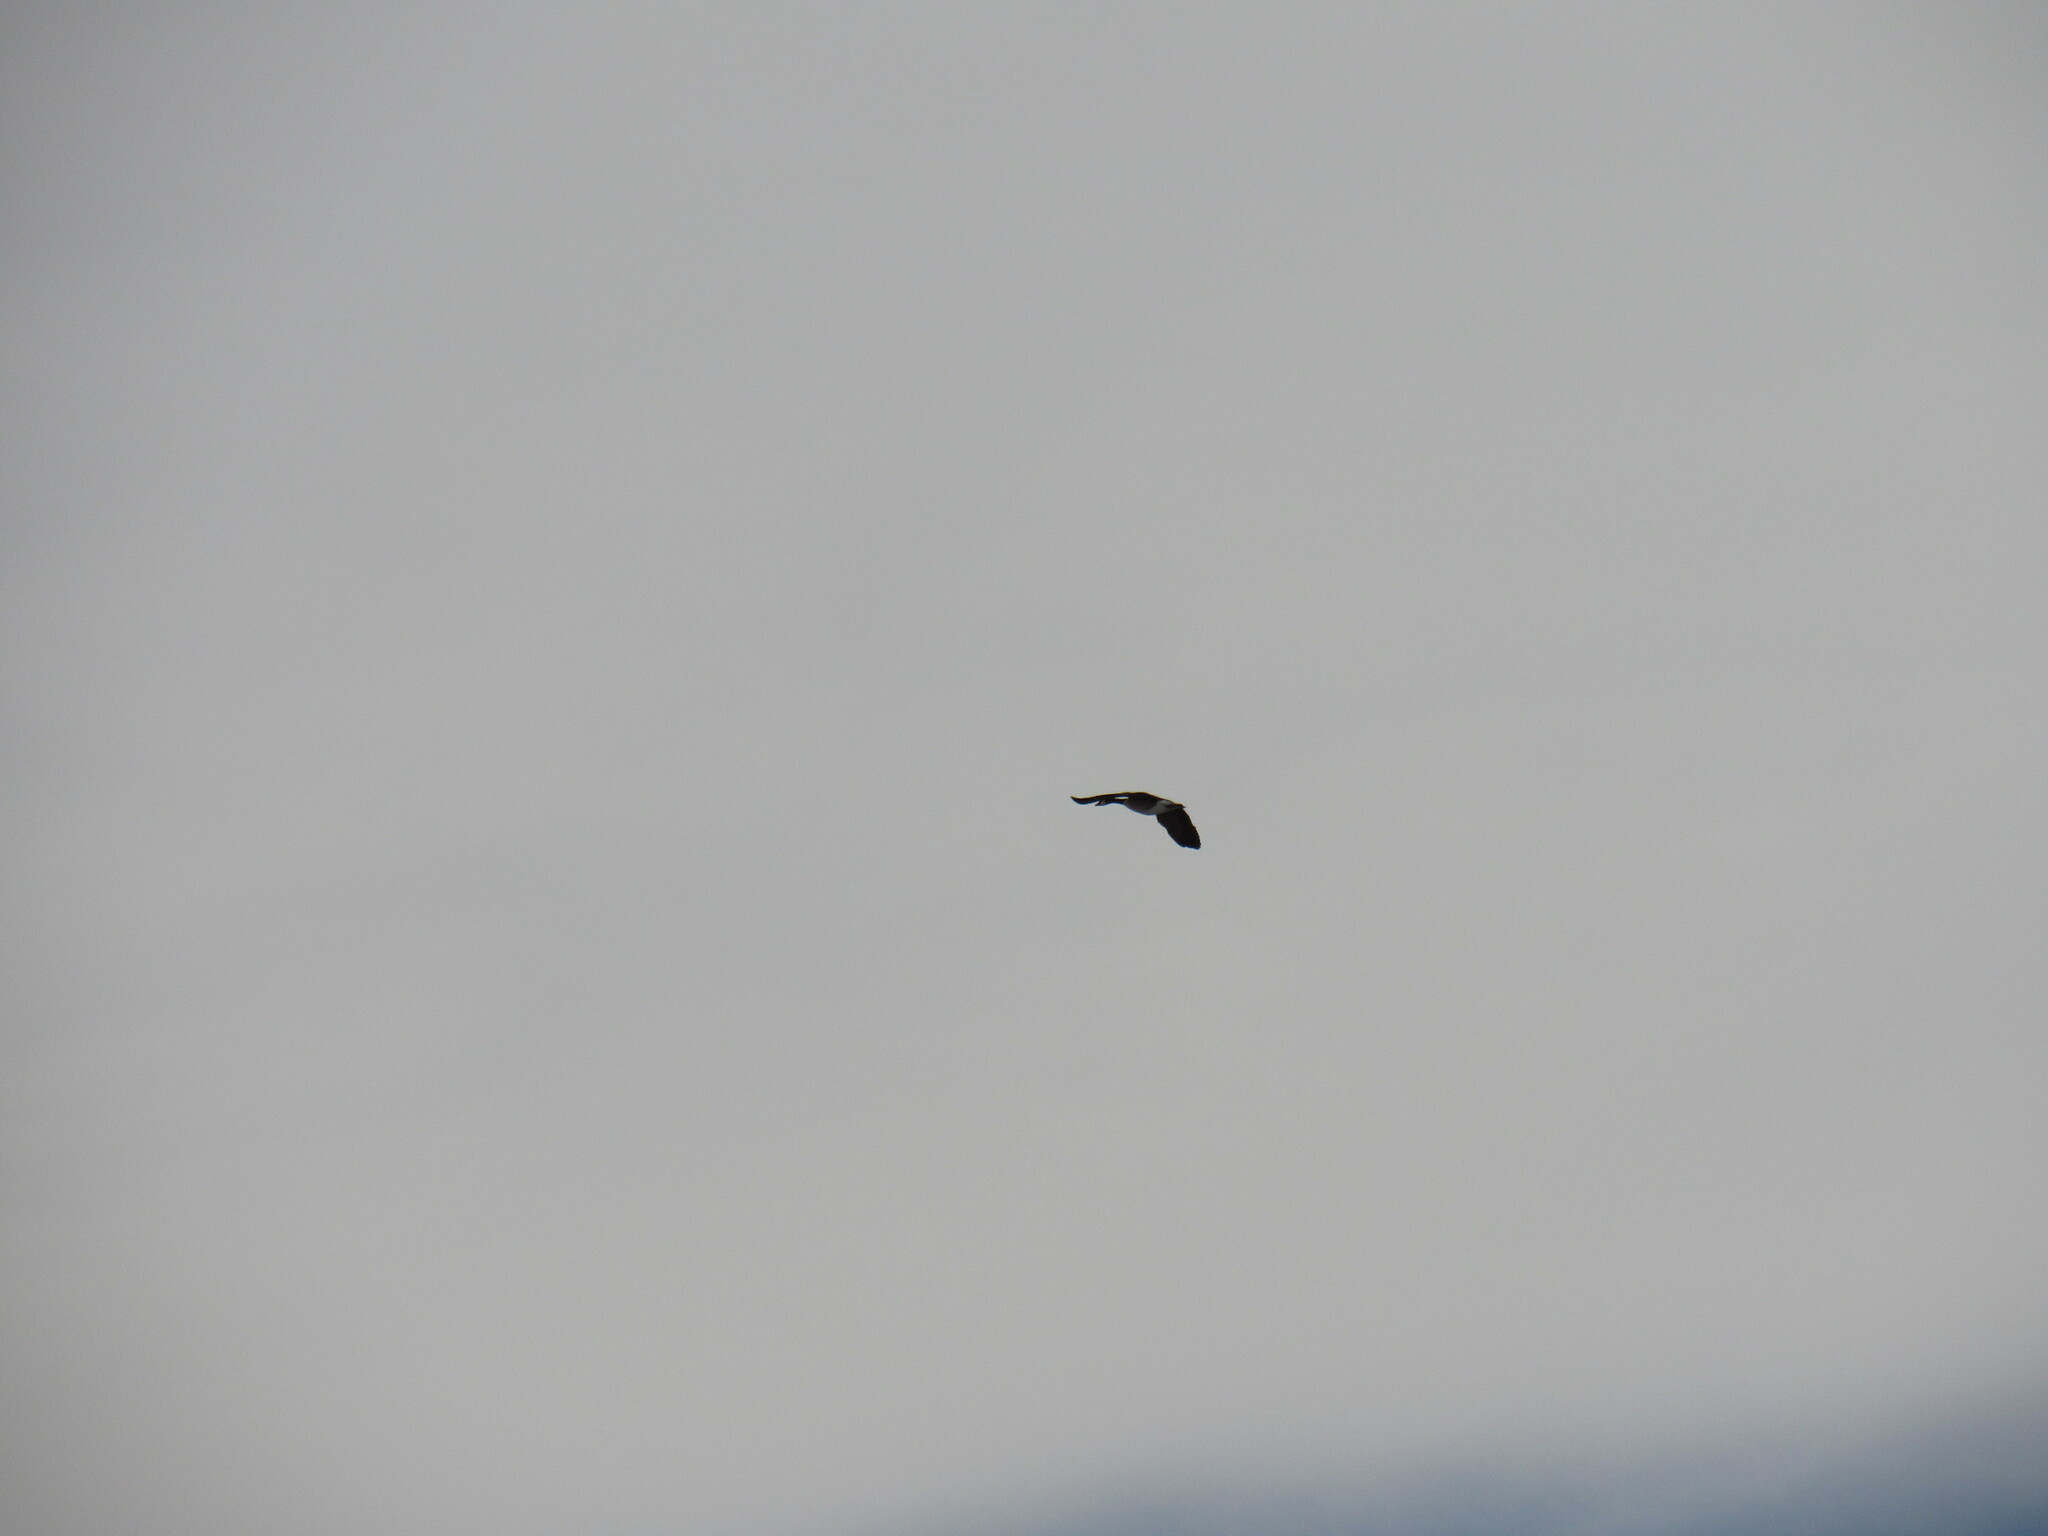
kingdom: Animalia
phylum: Chordata
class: Aves
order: Anseriformes
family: Anatidae
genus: Branta
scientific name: Branta canadensis
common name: Canada goose
